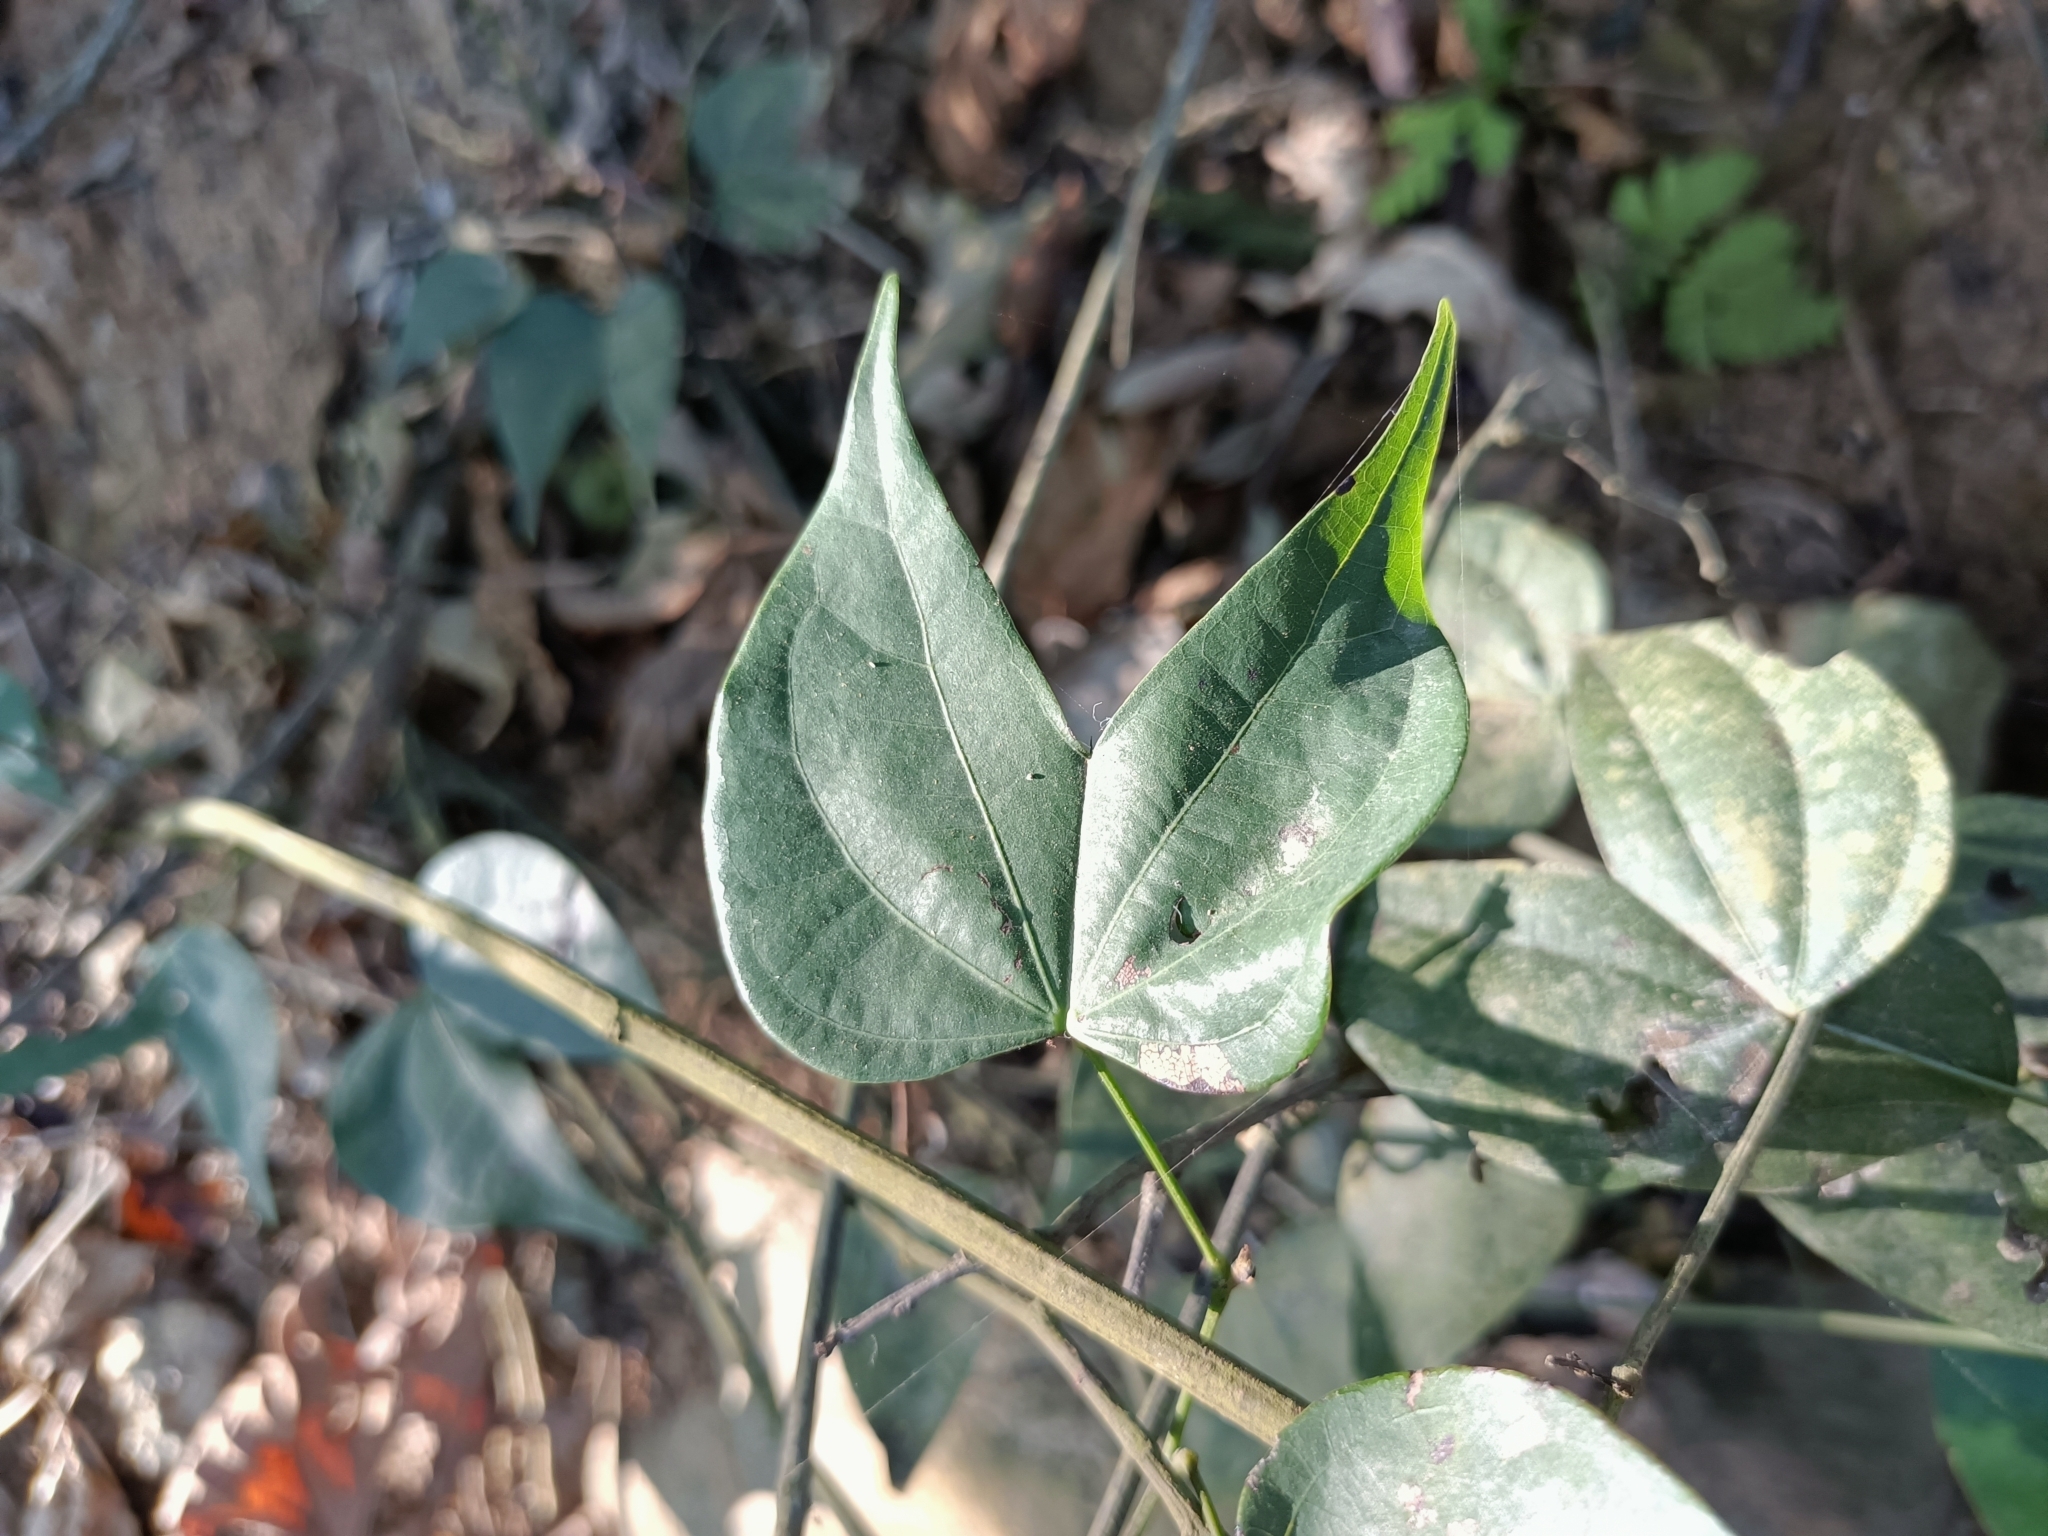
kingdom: Plantae
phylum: Tracheophyta
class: Magnoliopsida
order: Fabales
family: Fabaceae
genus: Phanera
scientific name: Phanera championii
